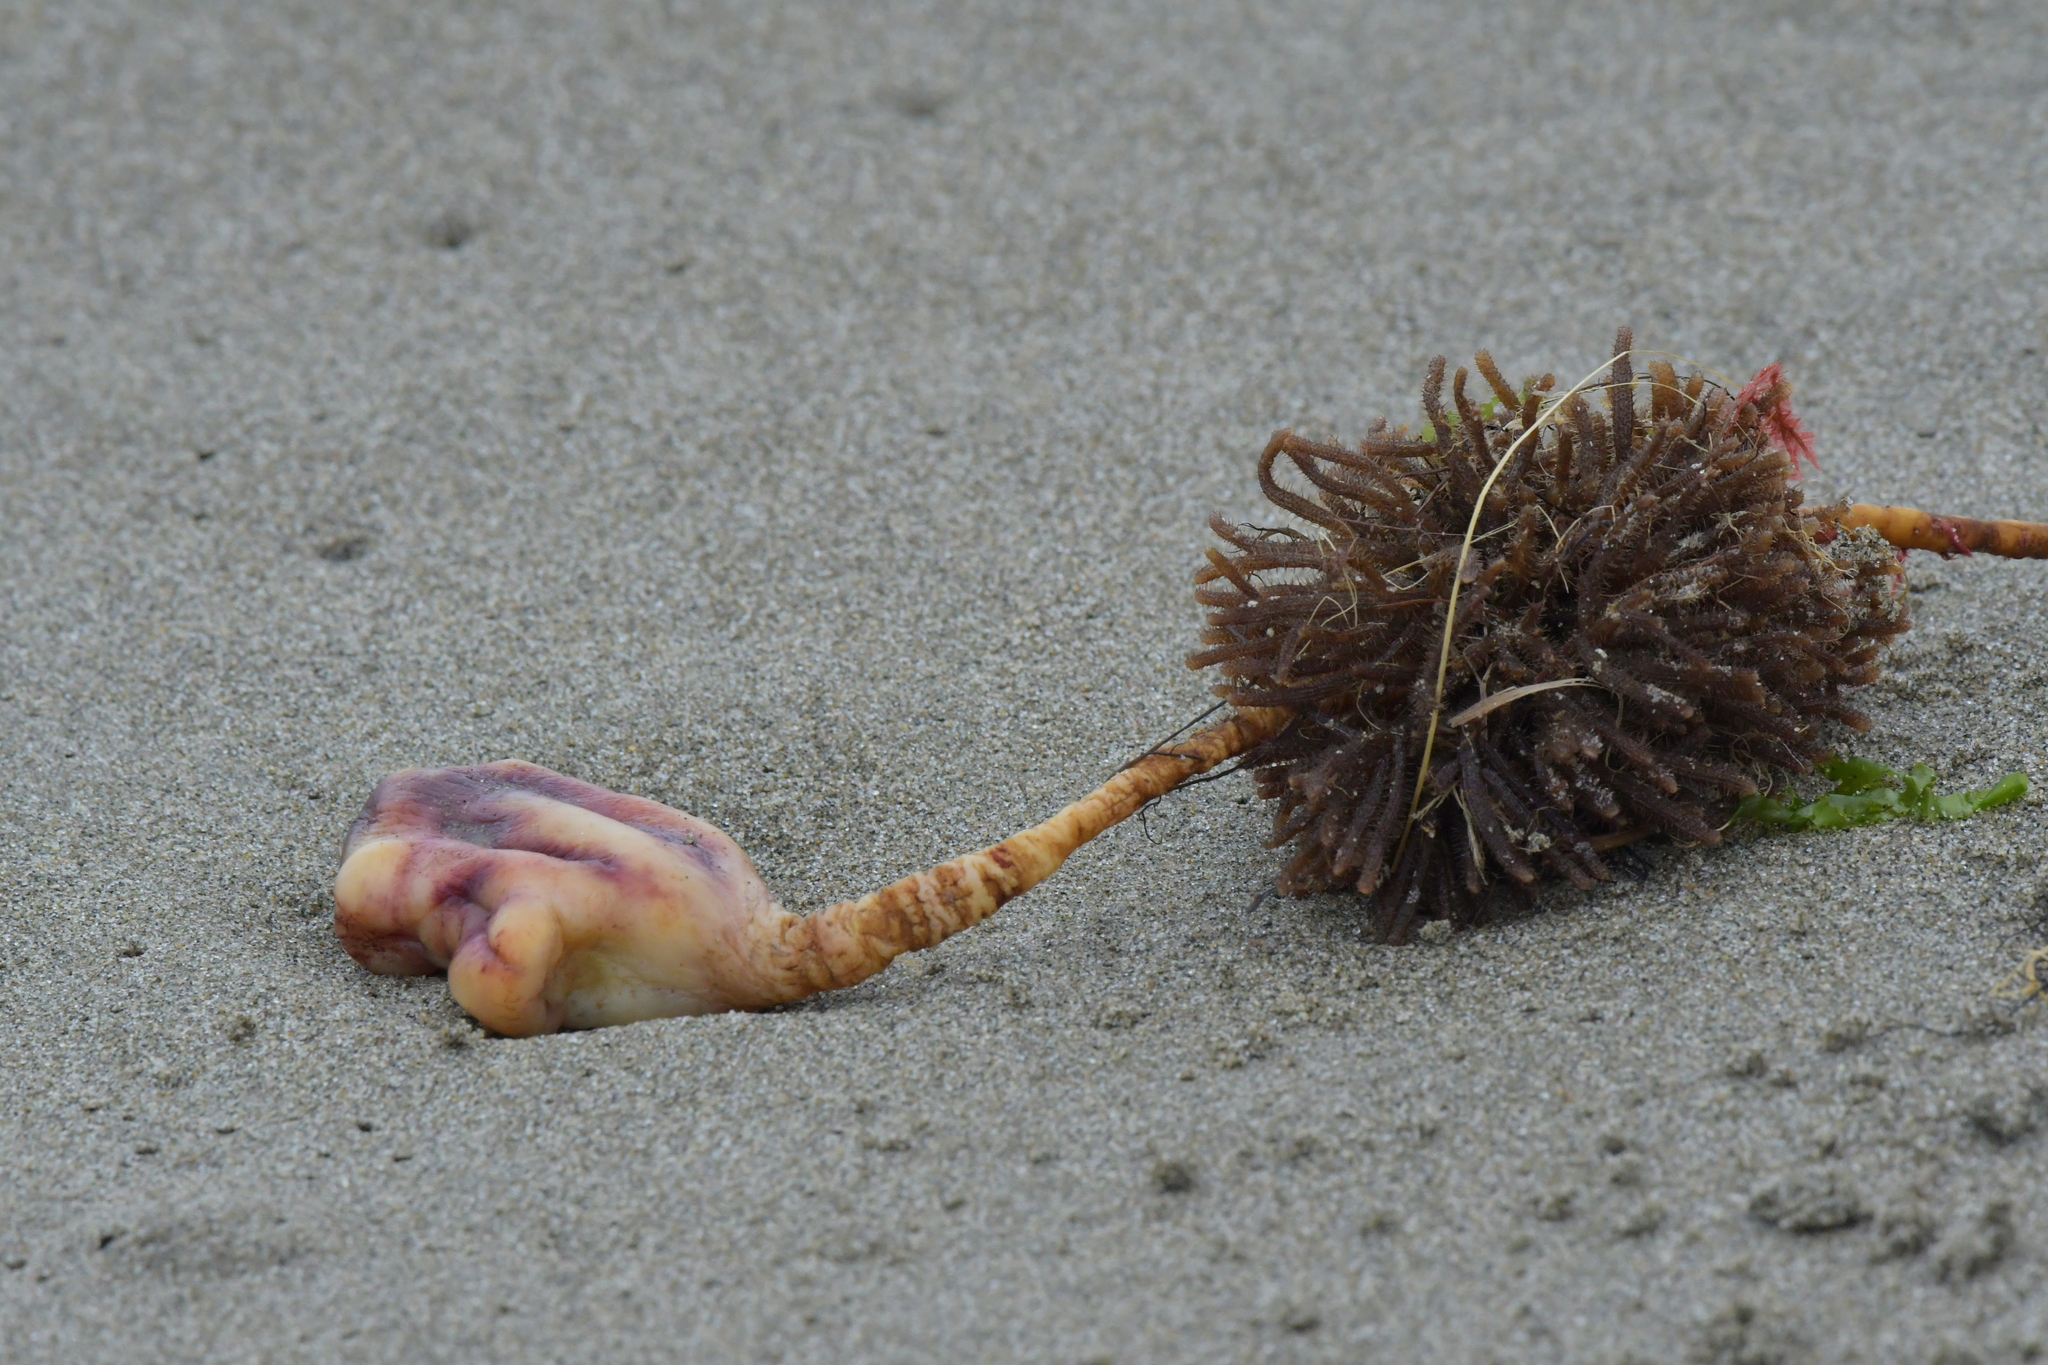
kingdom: Animalia
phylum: Chordata
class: Ascidiacea
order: Stolidobranchia
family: Pyuridae
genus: Pyura
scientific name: Pyura pachydermatina
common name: Sea tulip
